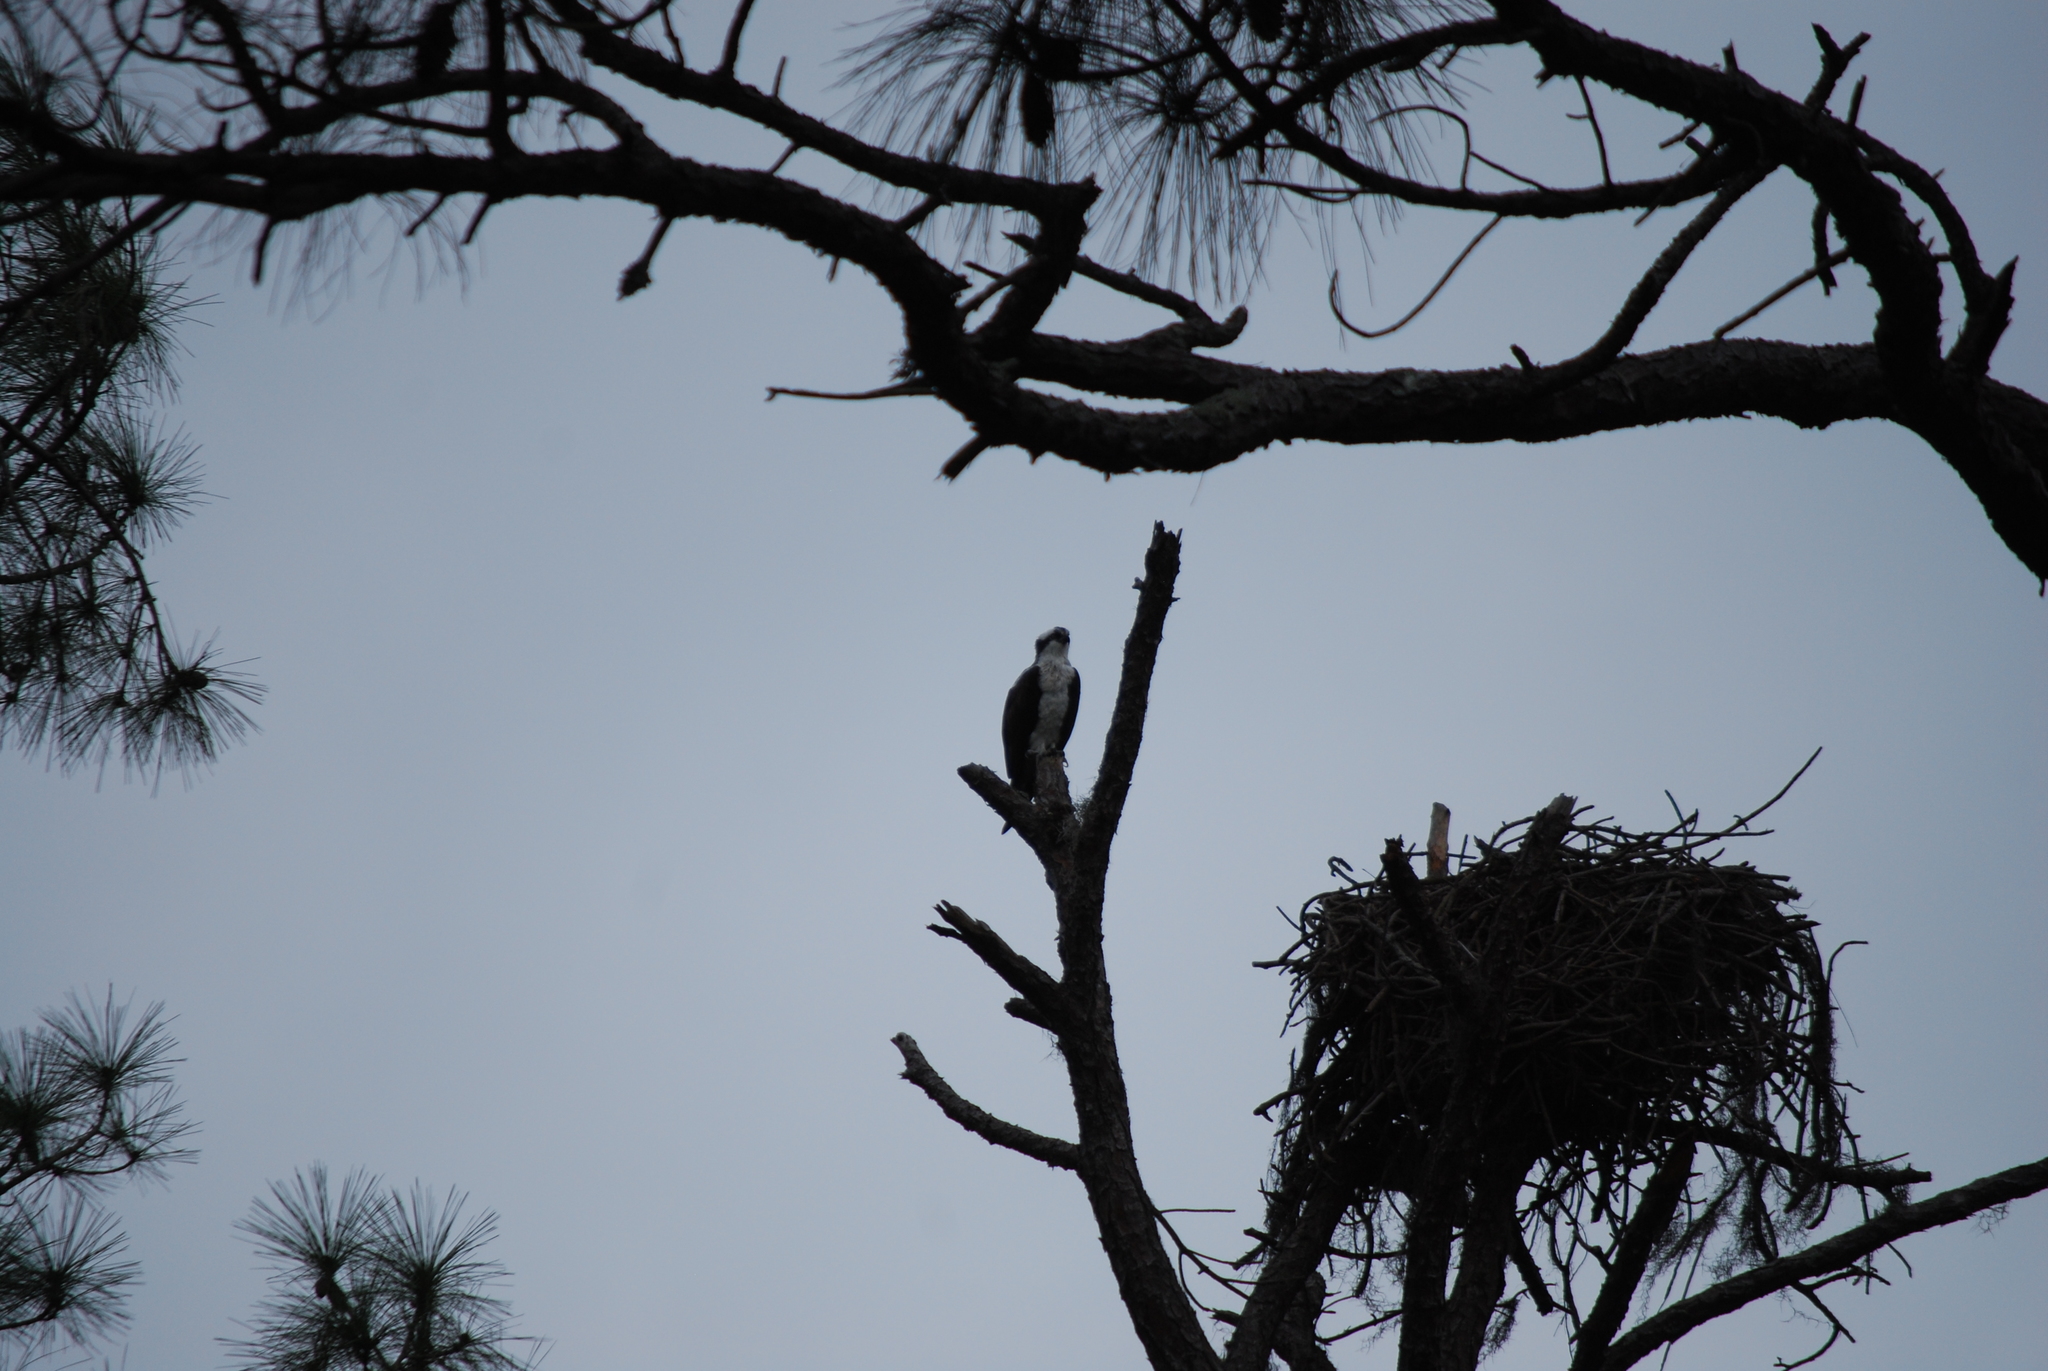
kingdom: Animalia
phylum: Chordata
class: Aves
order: Accipitriformes
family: Pandionidae
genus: Pandion
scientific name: Pandion haliaetus
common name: Osprey
